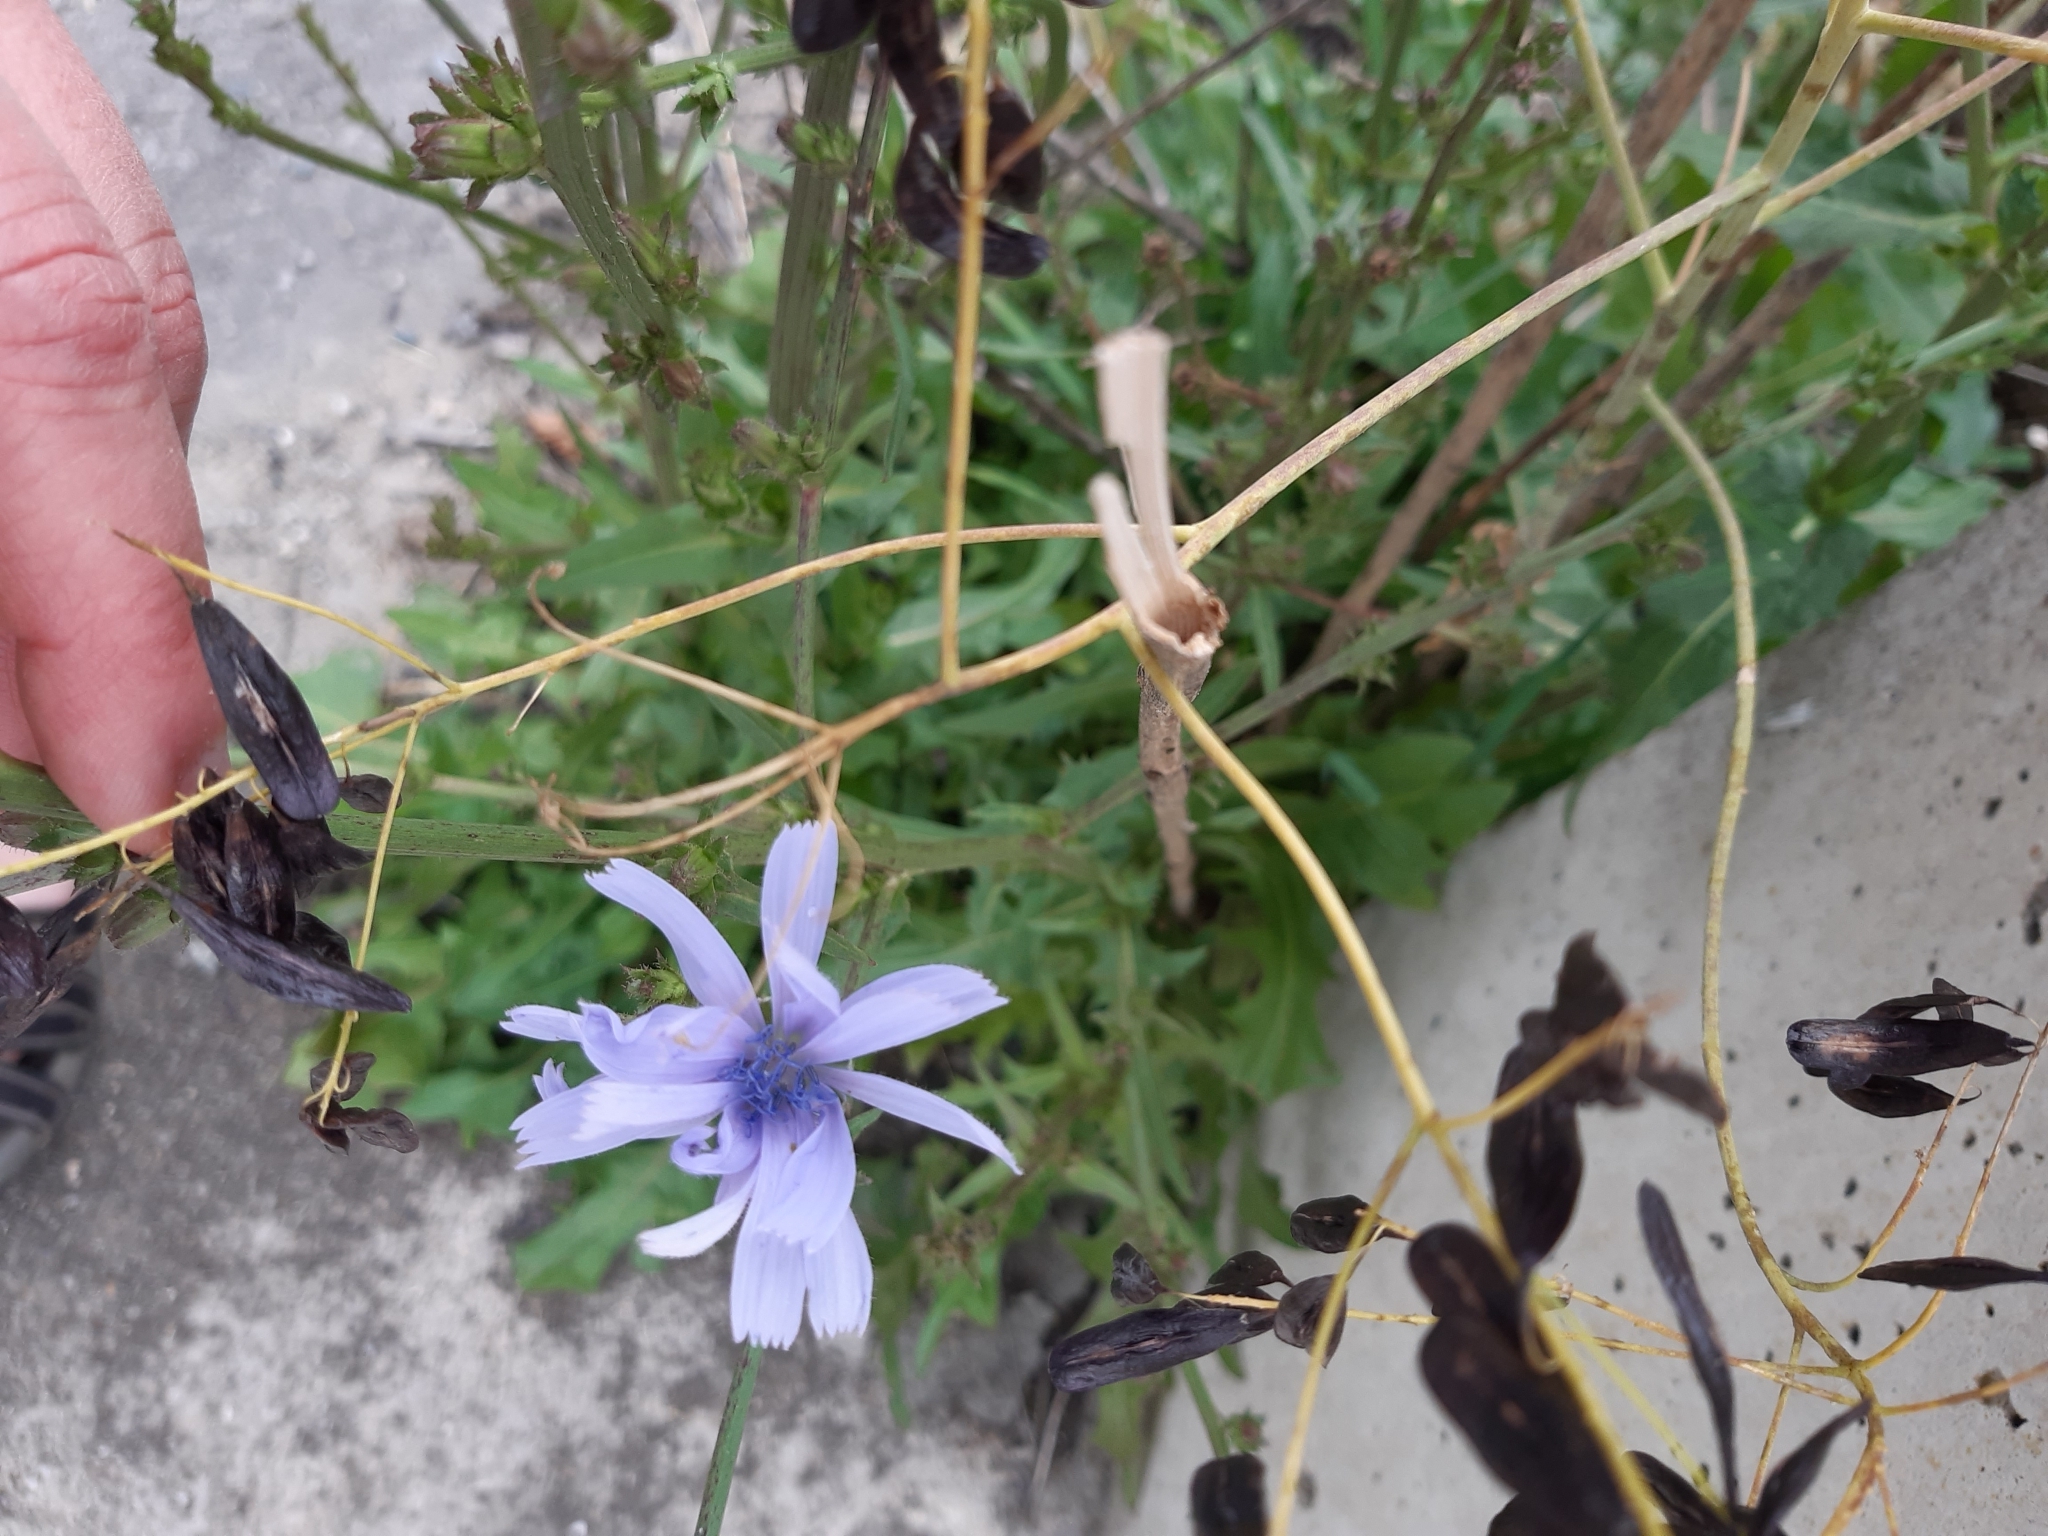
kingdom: Plantae
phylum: Tracheophyta
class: Magnoliopsida
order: Asterales
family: Asteraceae
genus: Cichorium
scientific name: Cichorium intybus
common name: Chicory
